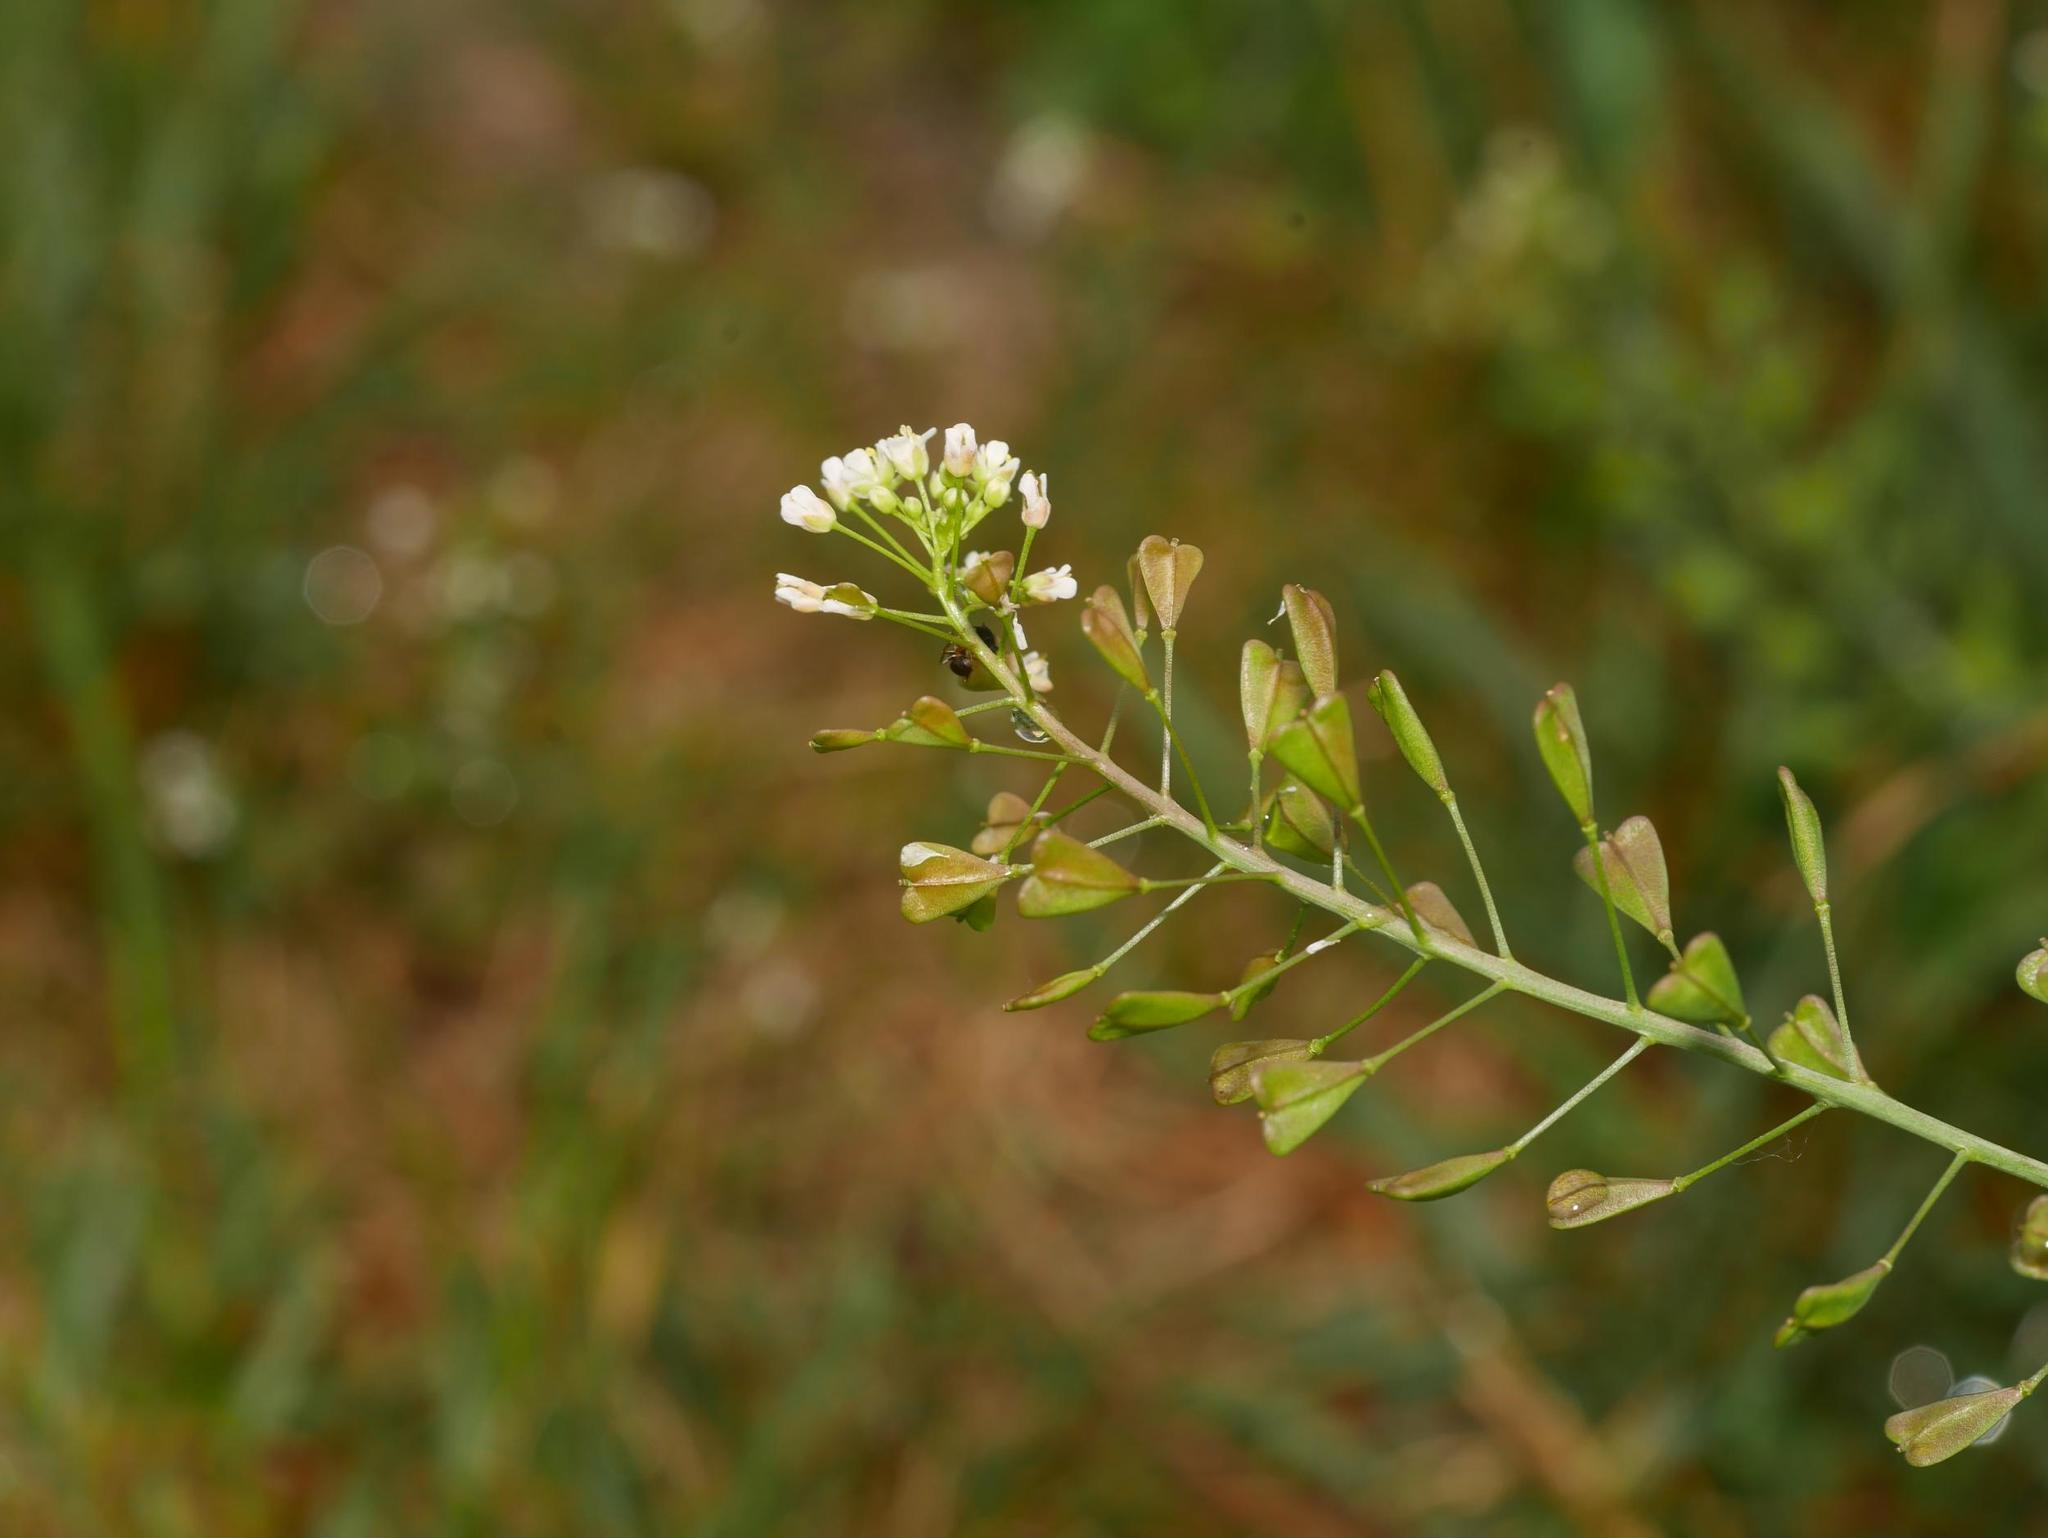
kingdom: Plantae
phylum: Tracheophyta
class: Magnoliopsida
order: Brassicales
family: Brassicaceae
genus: Capsella
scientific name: Capsella bursa-pastoris
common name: Shepherd's purse
